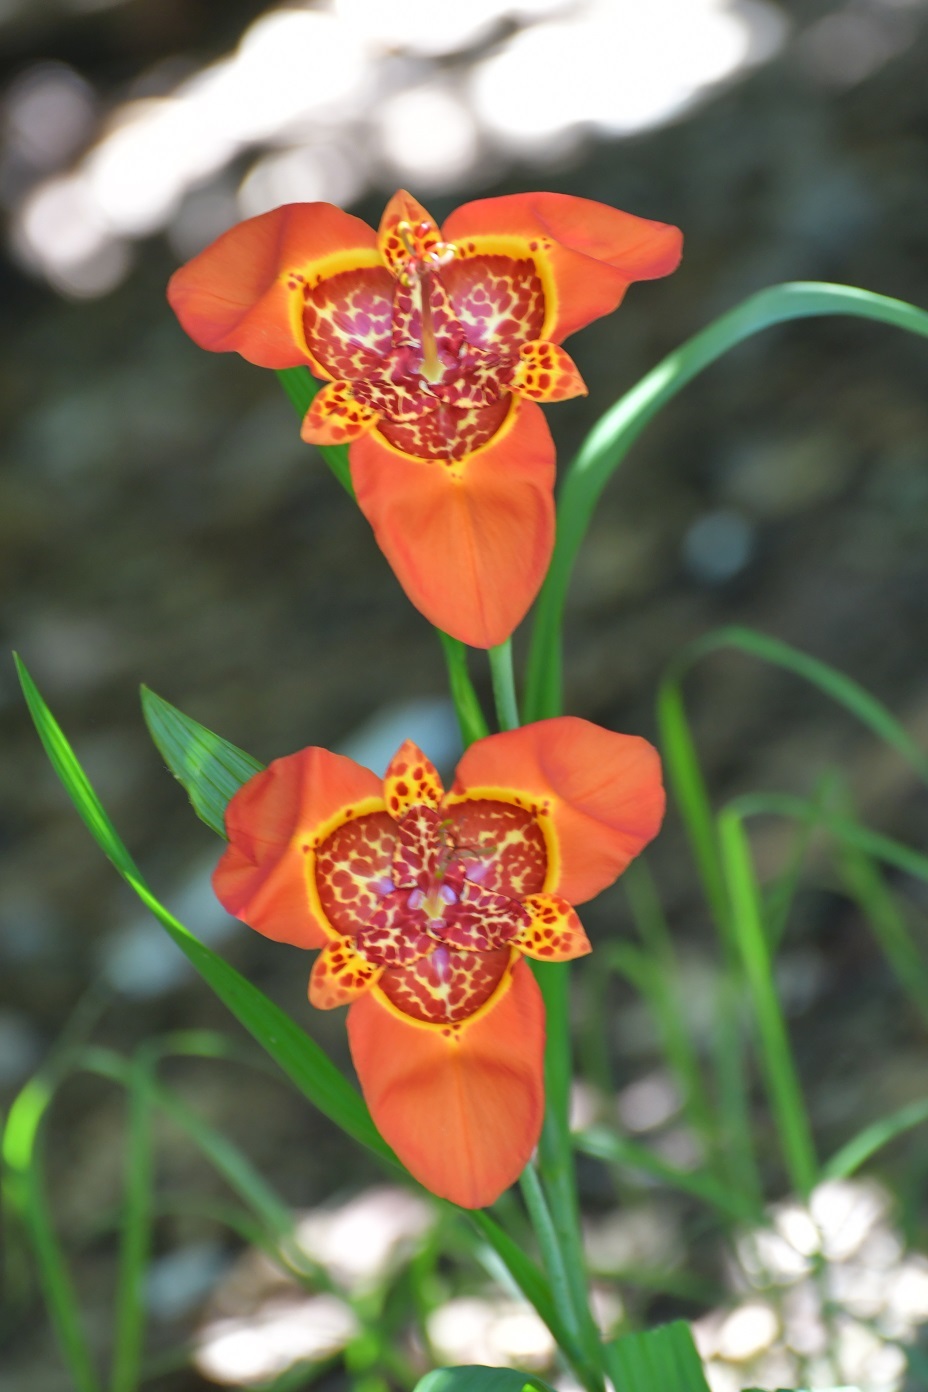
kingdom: Plantae
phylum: Tracheophyta
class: Liliopsida
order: Asparagales
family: Iridaceae
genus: Tigridia
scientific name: Tigridia pavonia
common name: Peacock-flower
